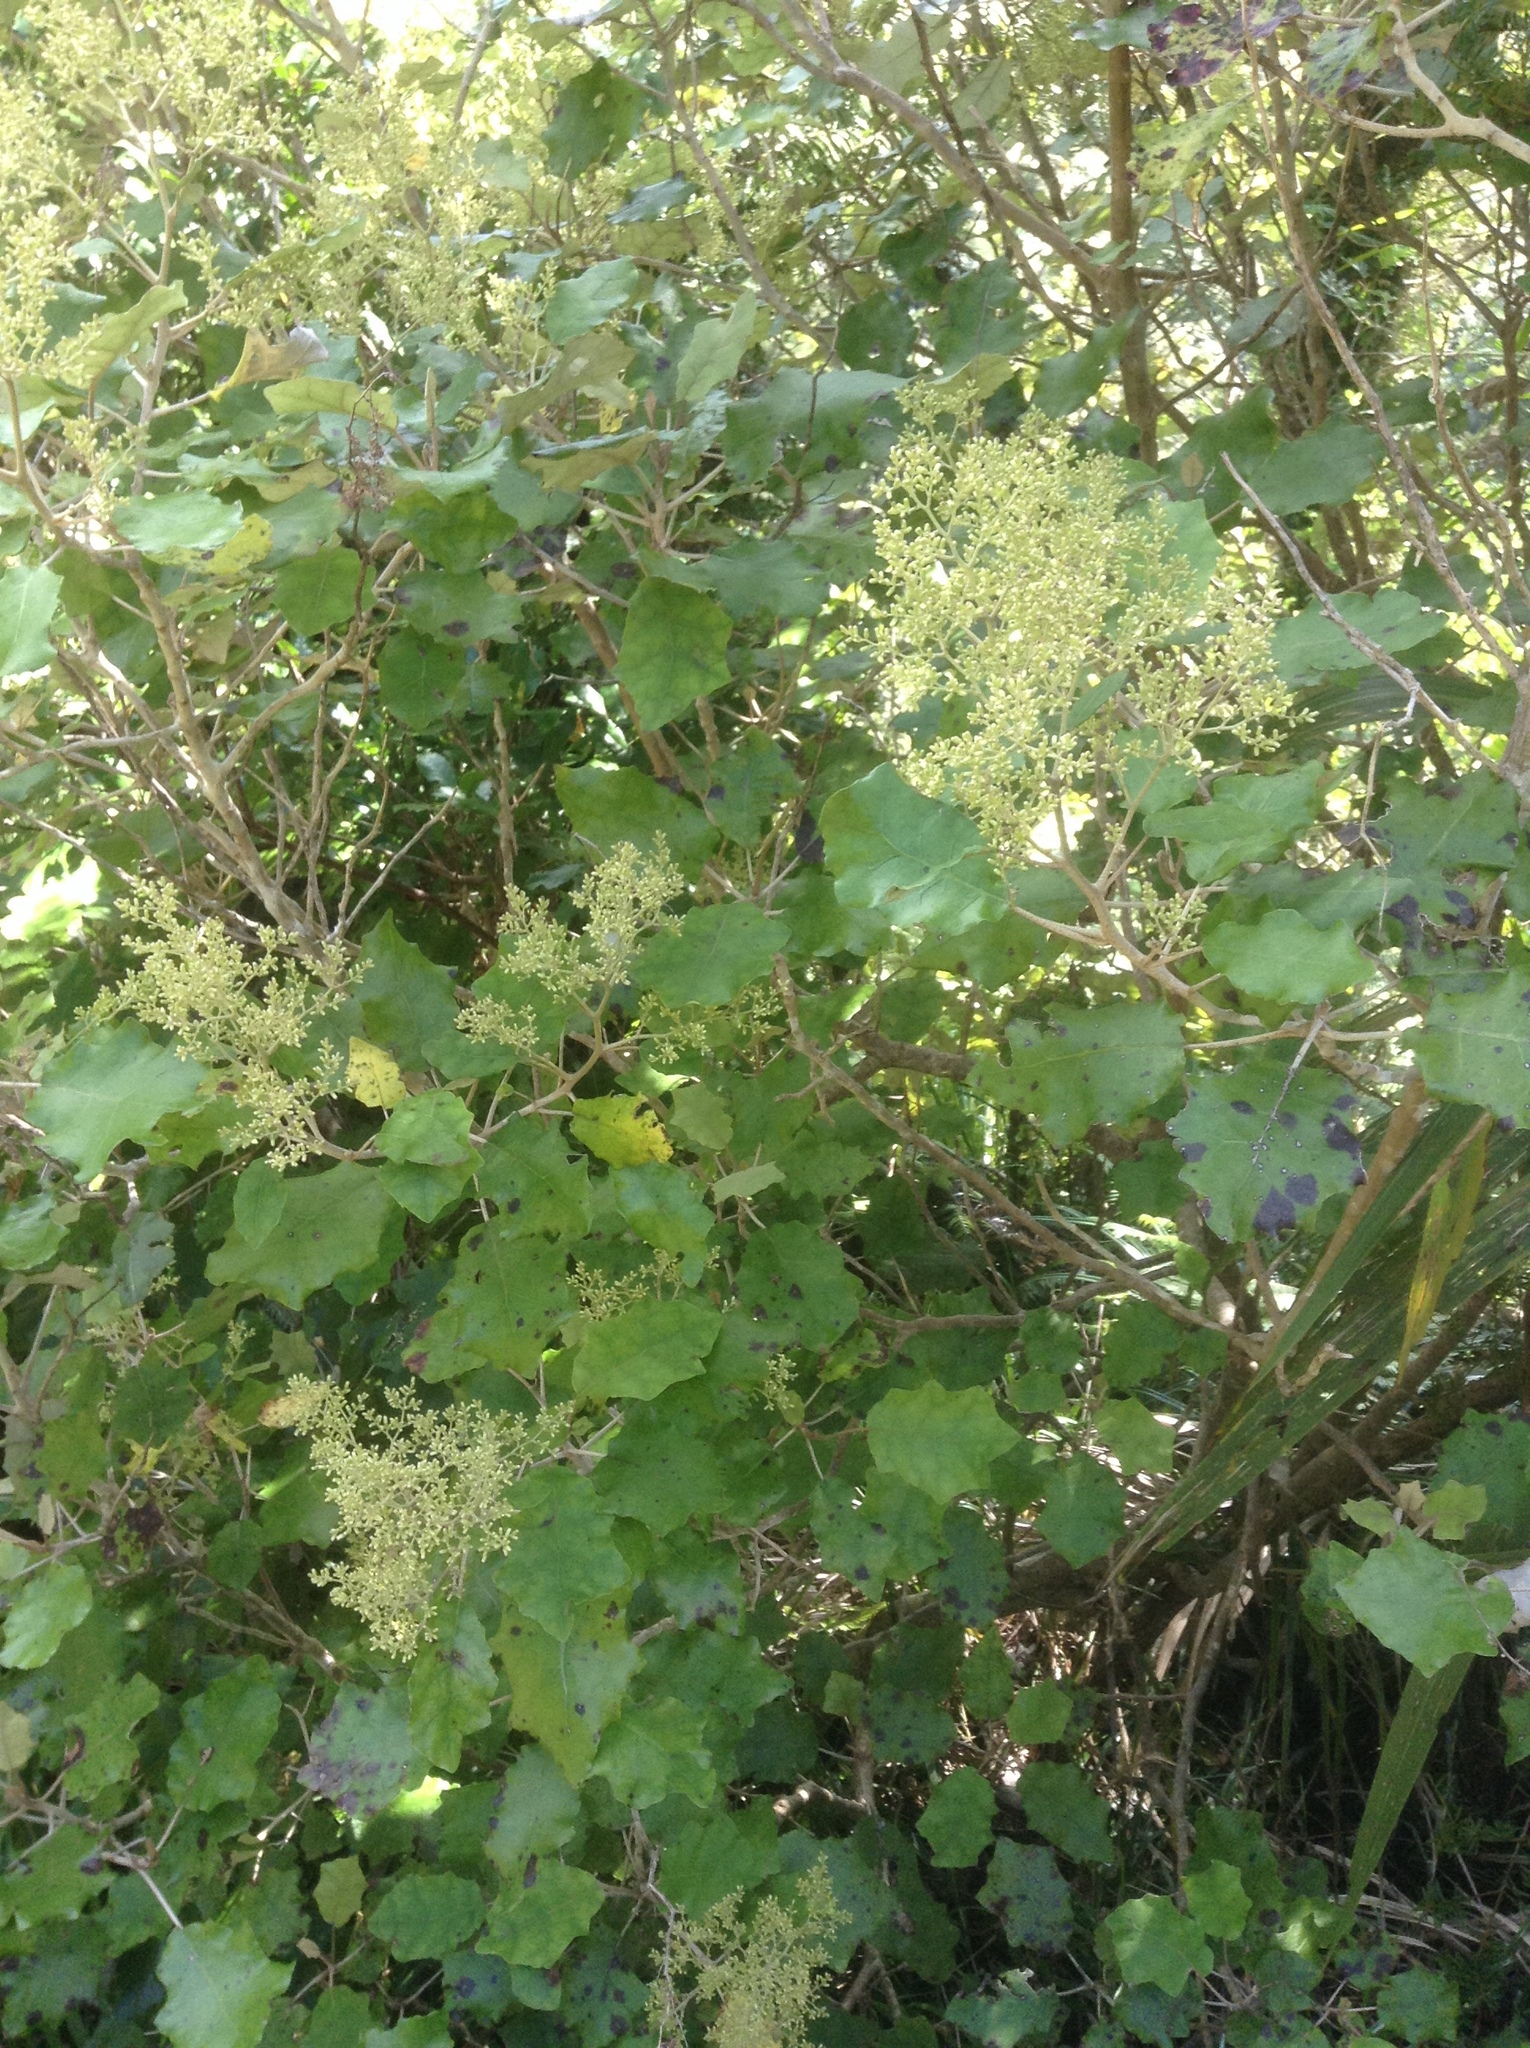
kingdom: Plantae
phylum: Tracheophyta
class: Magnoliopsida
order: Asterales
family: Asteraceae
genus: Brachyglottis
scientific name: Brachyglottis repanda
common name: Hedge ragwort
